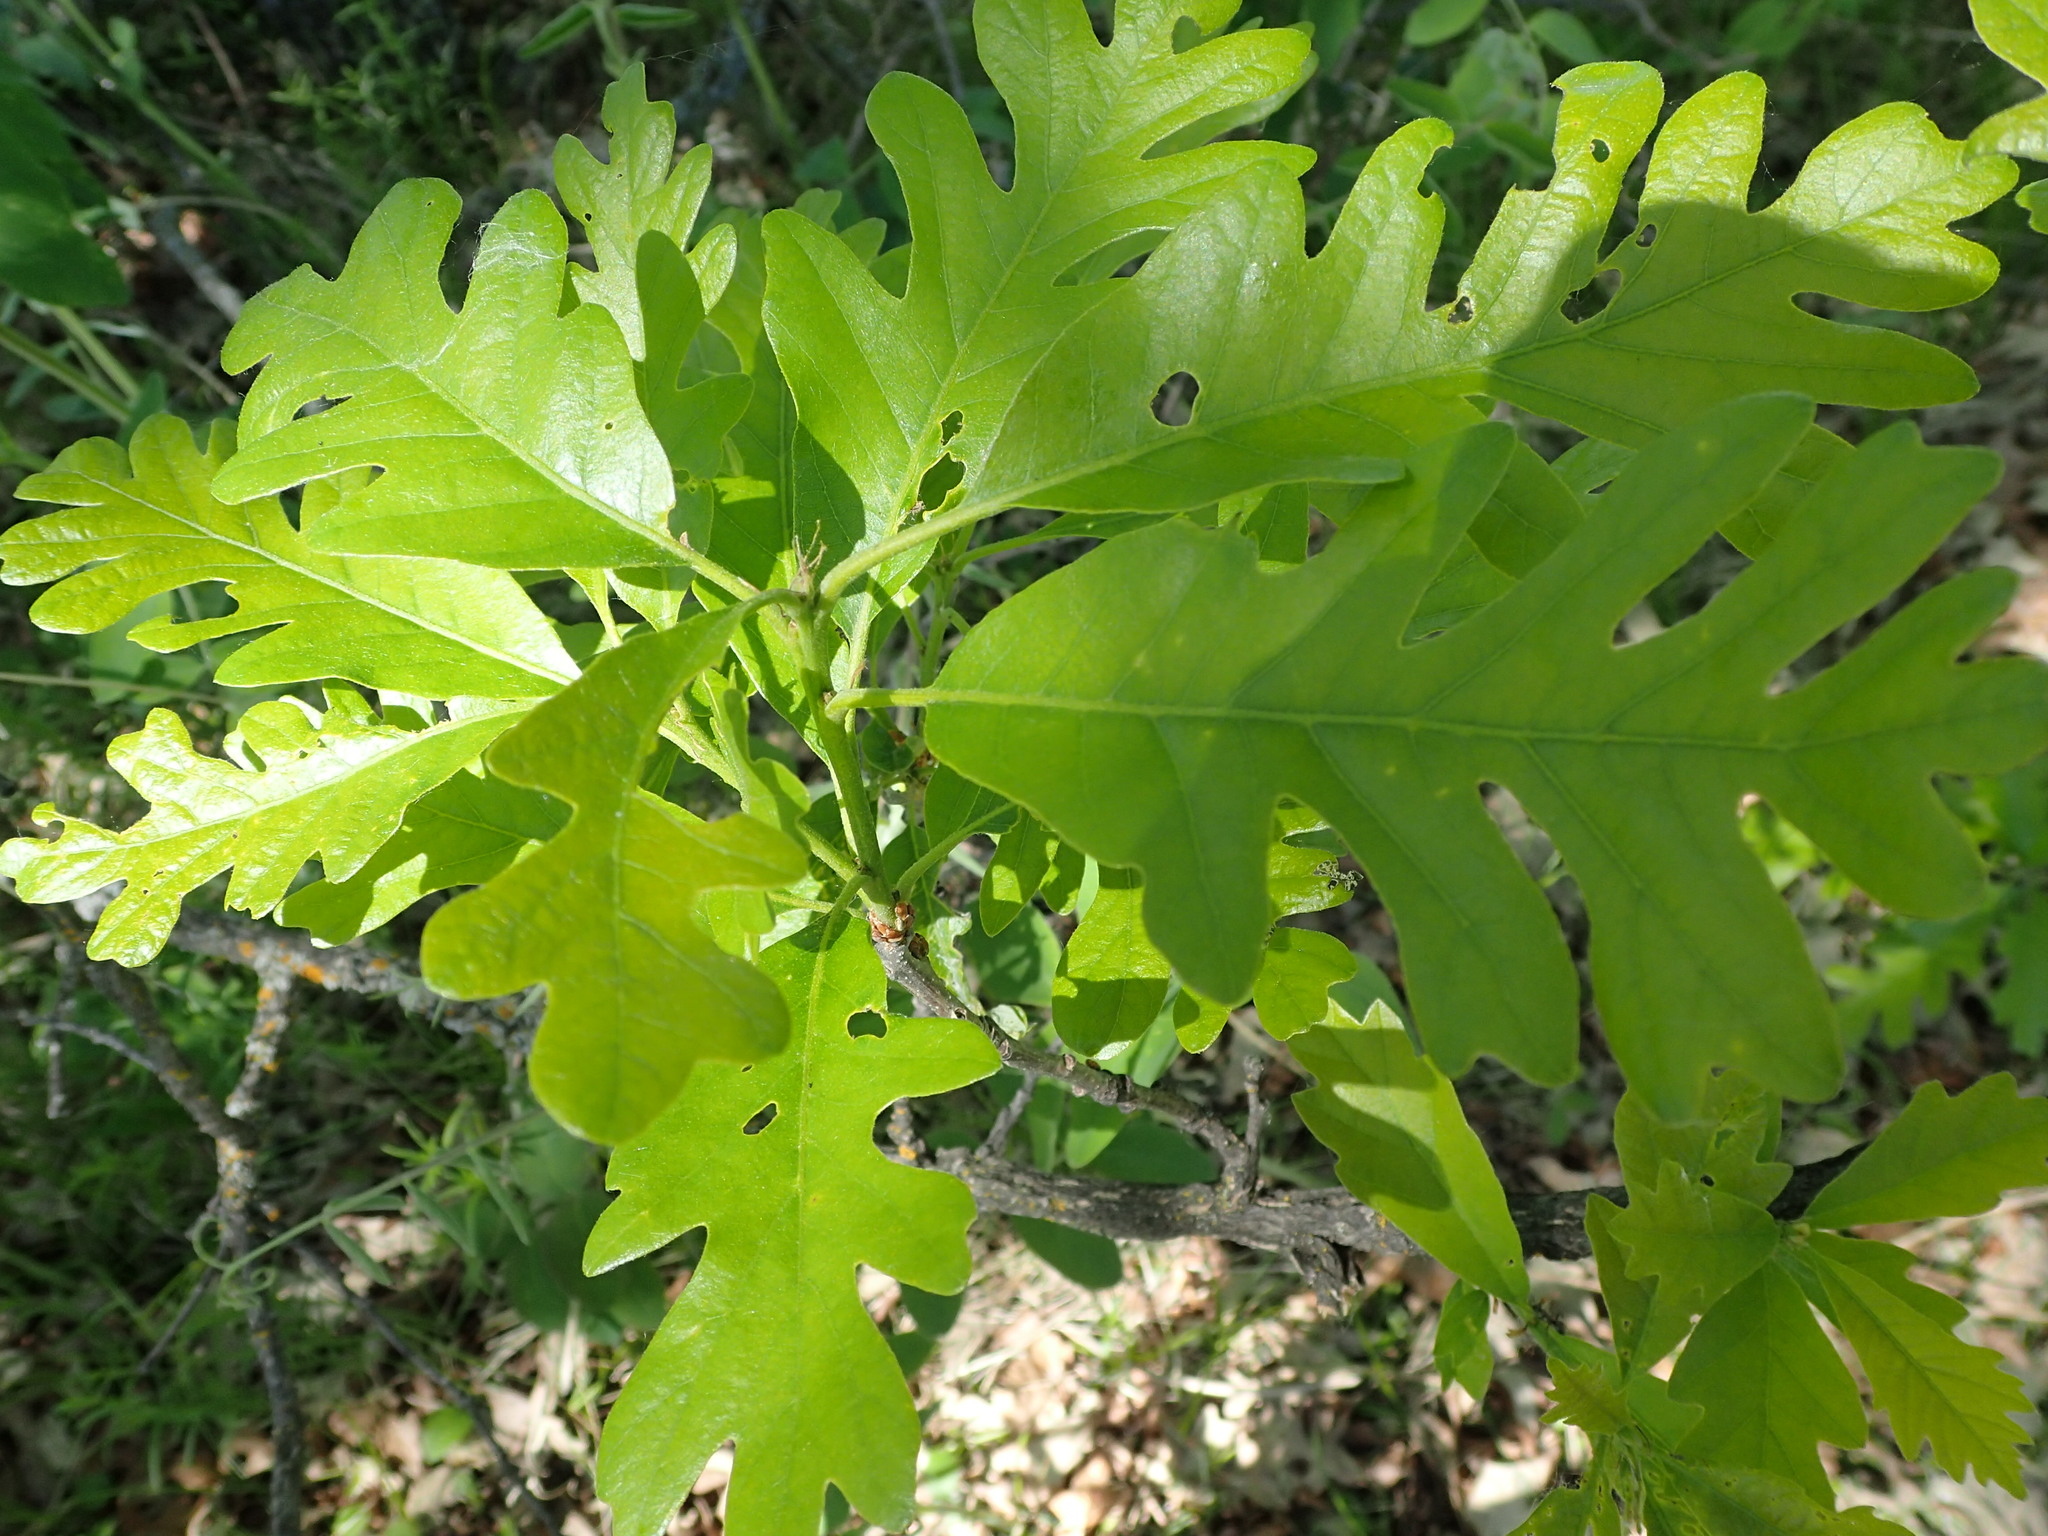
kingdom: Plantae
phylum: Tracheophyta
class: Magnoliopsida
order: Fagales
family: Fagaceae
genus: Quercus
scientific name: Quercus macrocarpa
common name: Bur oak
